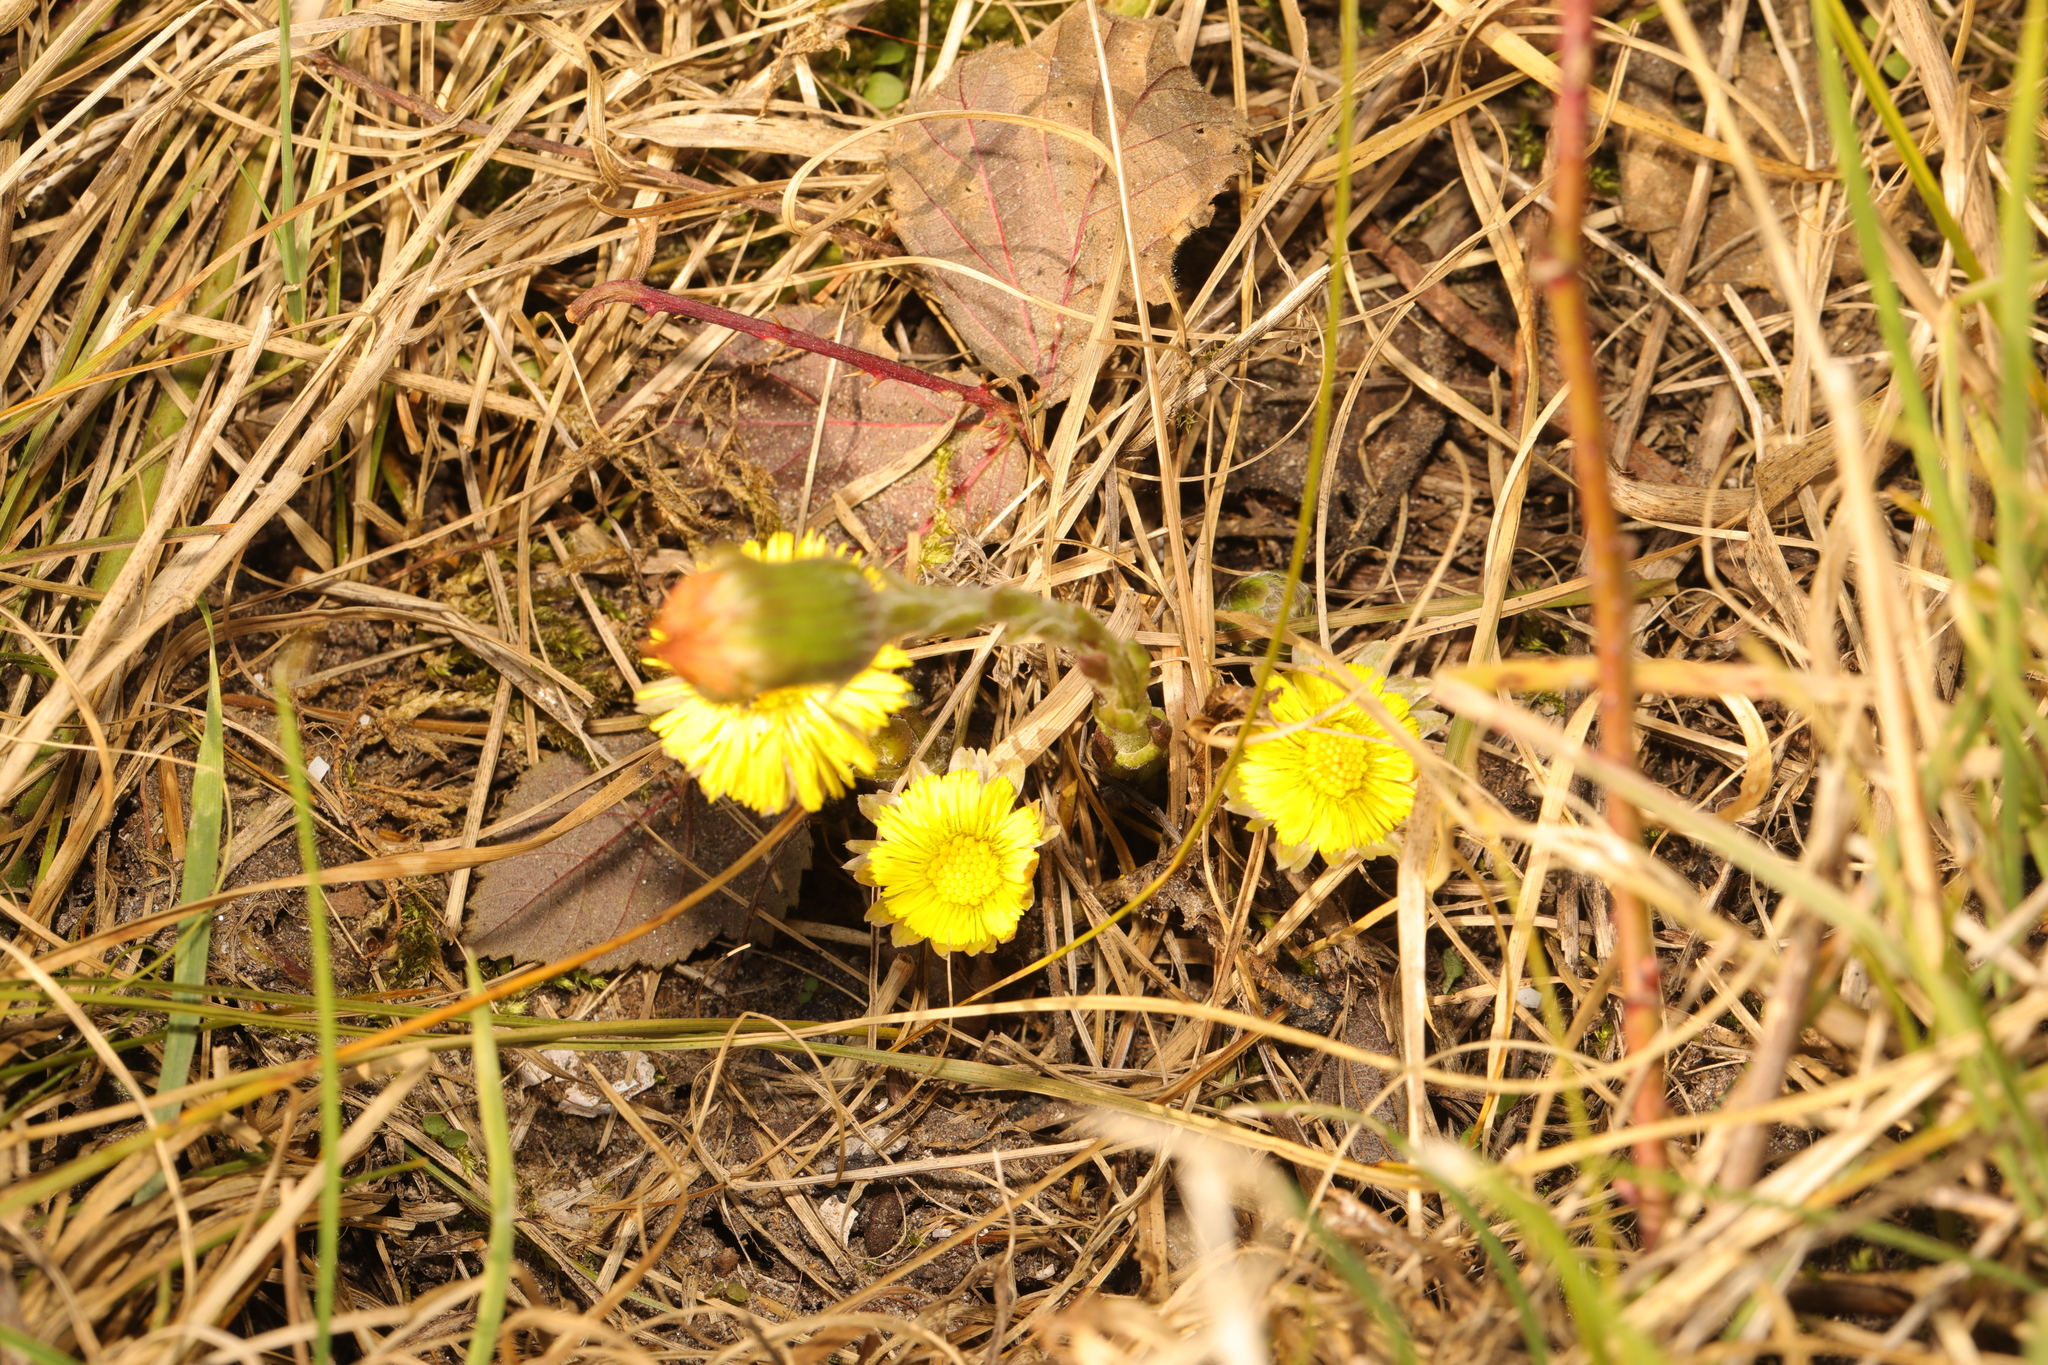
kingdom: Plantae
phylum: Tracheophyta
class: Magnoliopsida
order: Asterales
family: Asteraceae
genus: Tussilago
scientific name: Tussilago farfara
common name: Coltsfoot
